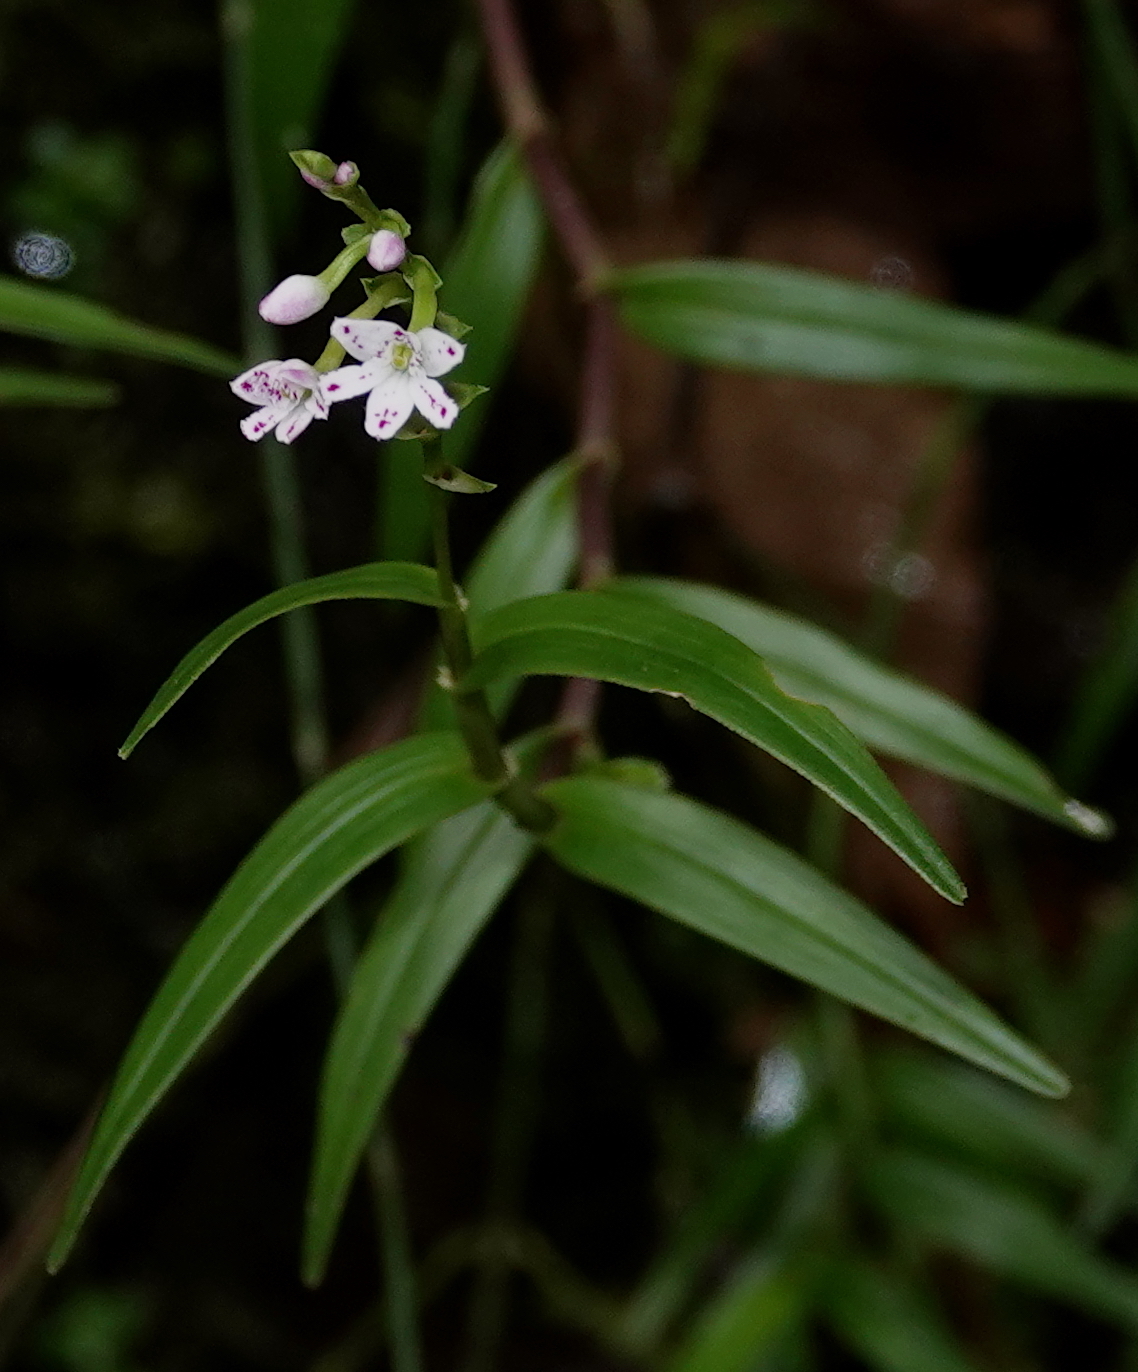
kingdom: Plantae
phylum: Tracheophyta
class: Liliopsida
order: Asparagales
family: Orchidaceae
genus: Epidendrum
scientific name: Epidendrum fimbriatum
